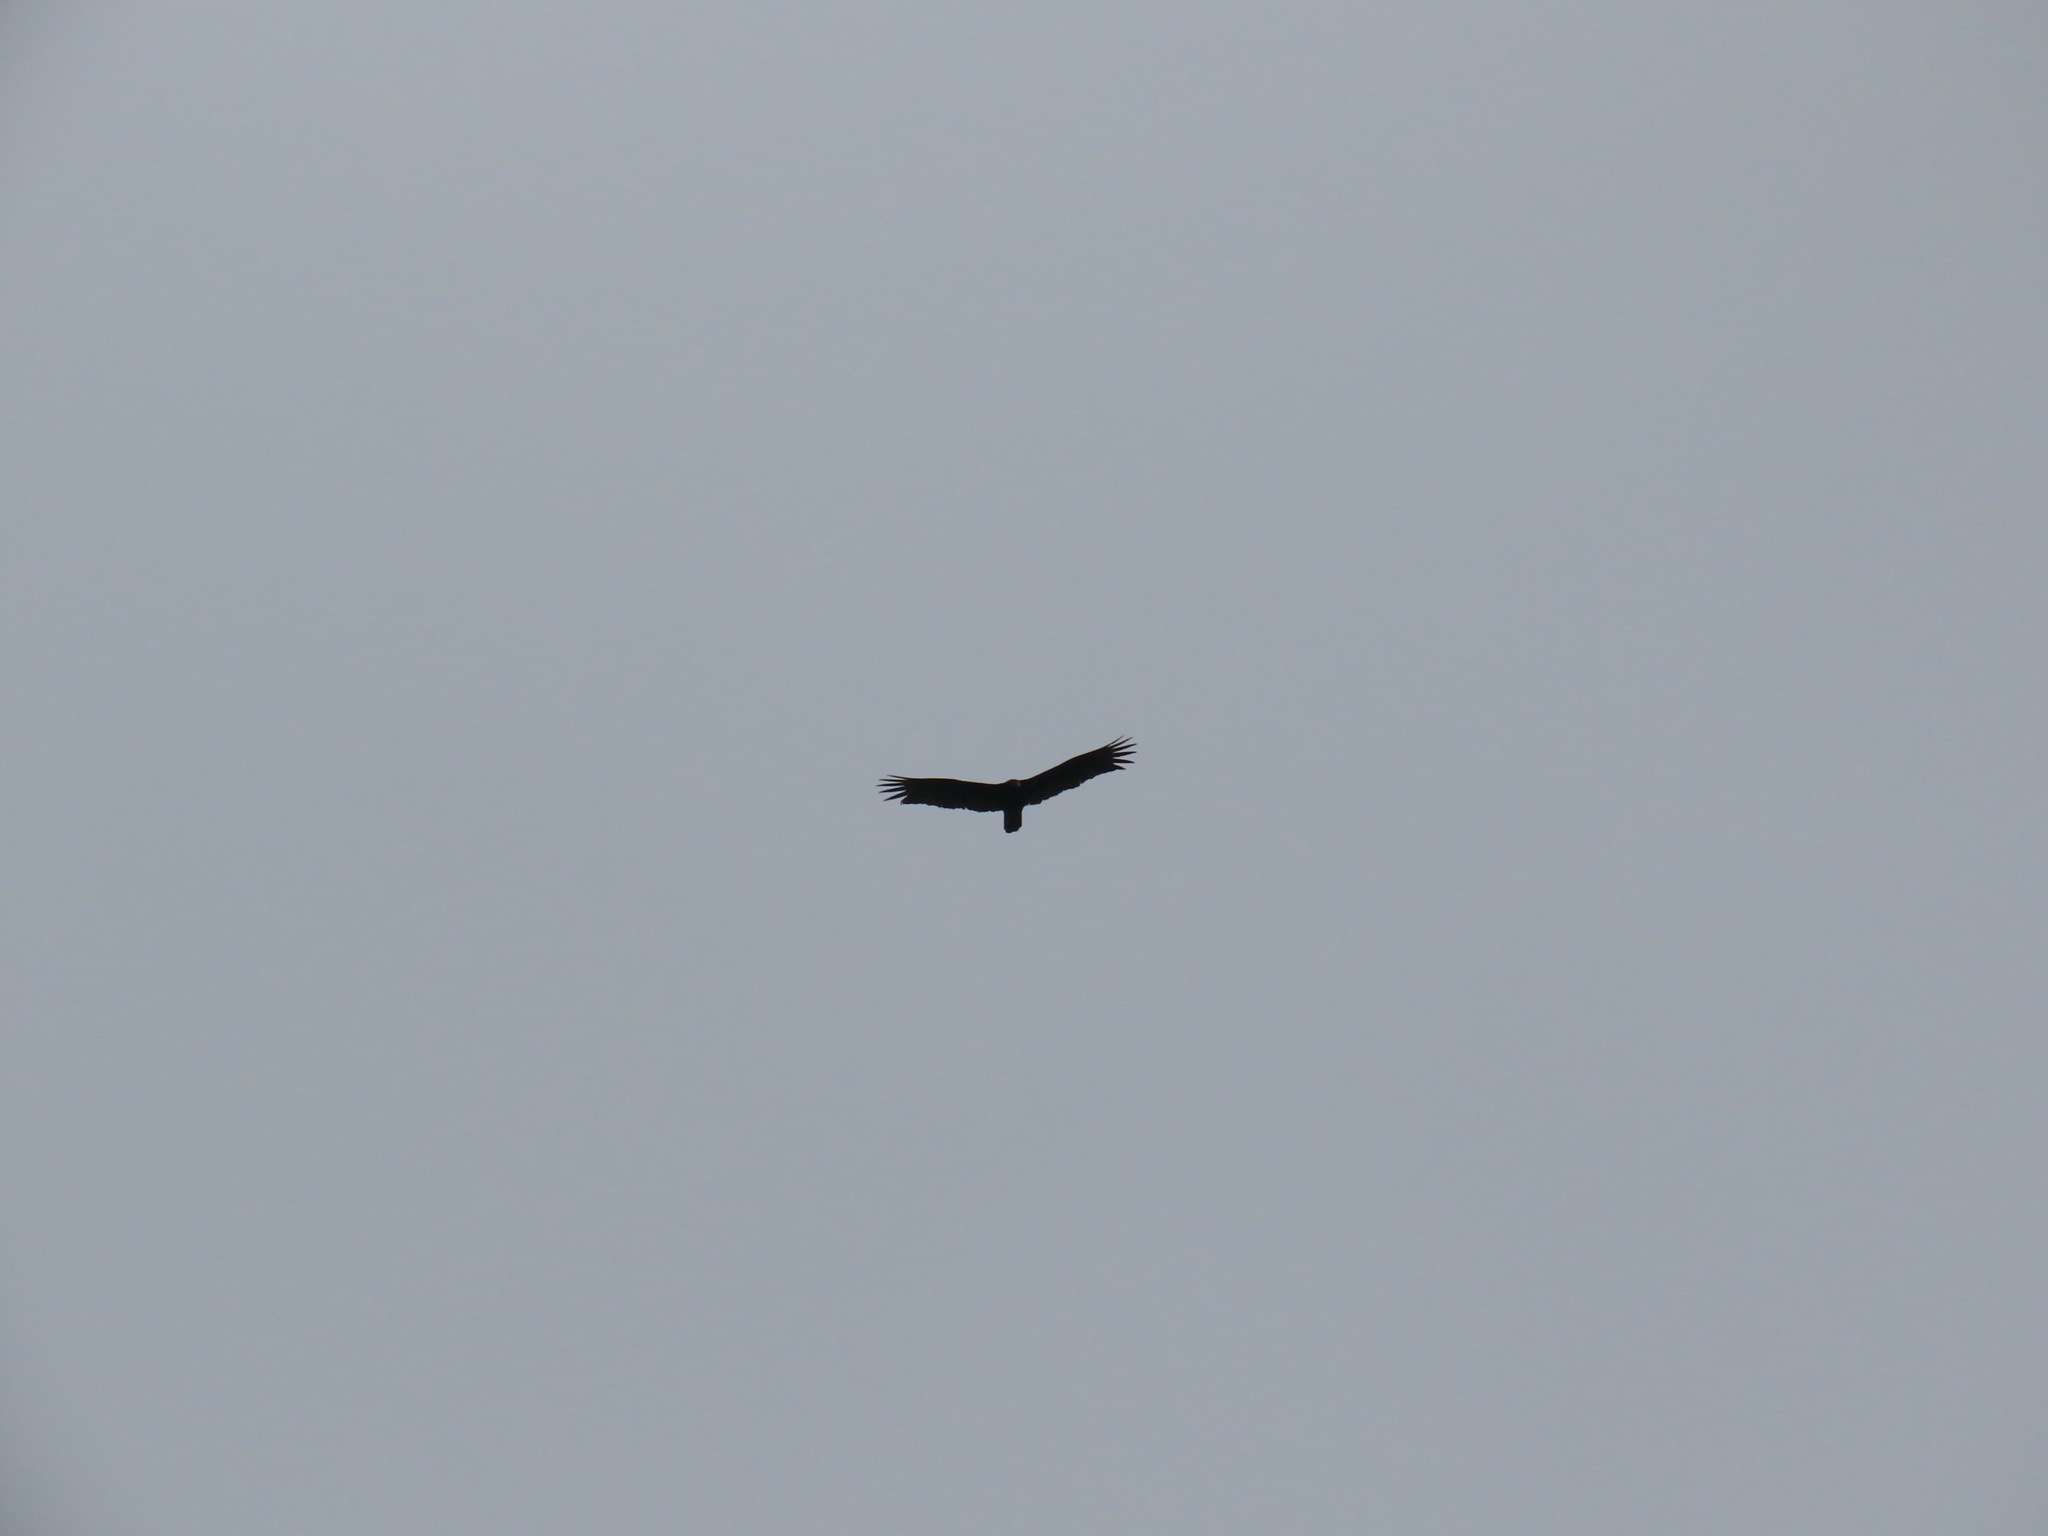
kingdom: Animalia
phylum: Chordata
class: Aves
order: Accipitriformes
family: Cathartidae
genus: Cathartes
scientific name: Cathartes aura
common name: Turkey vulture
